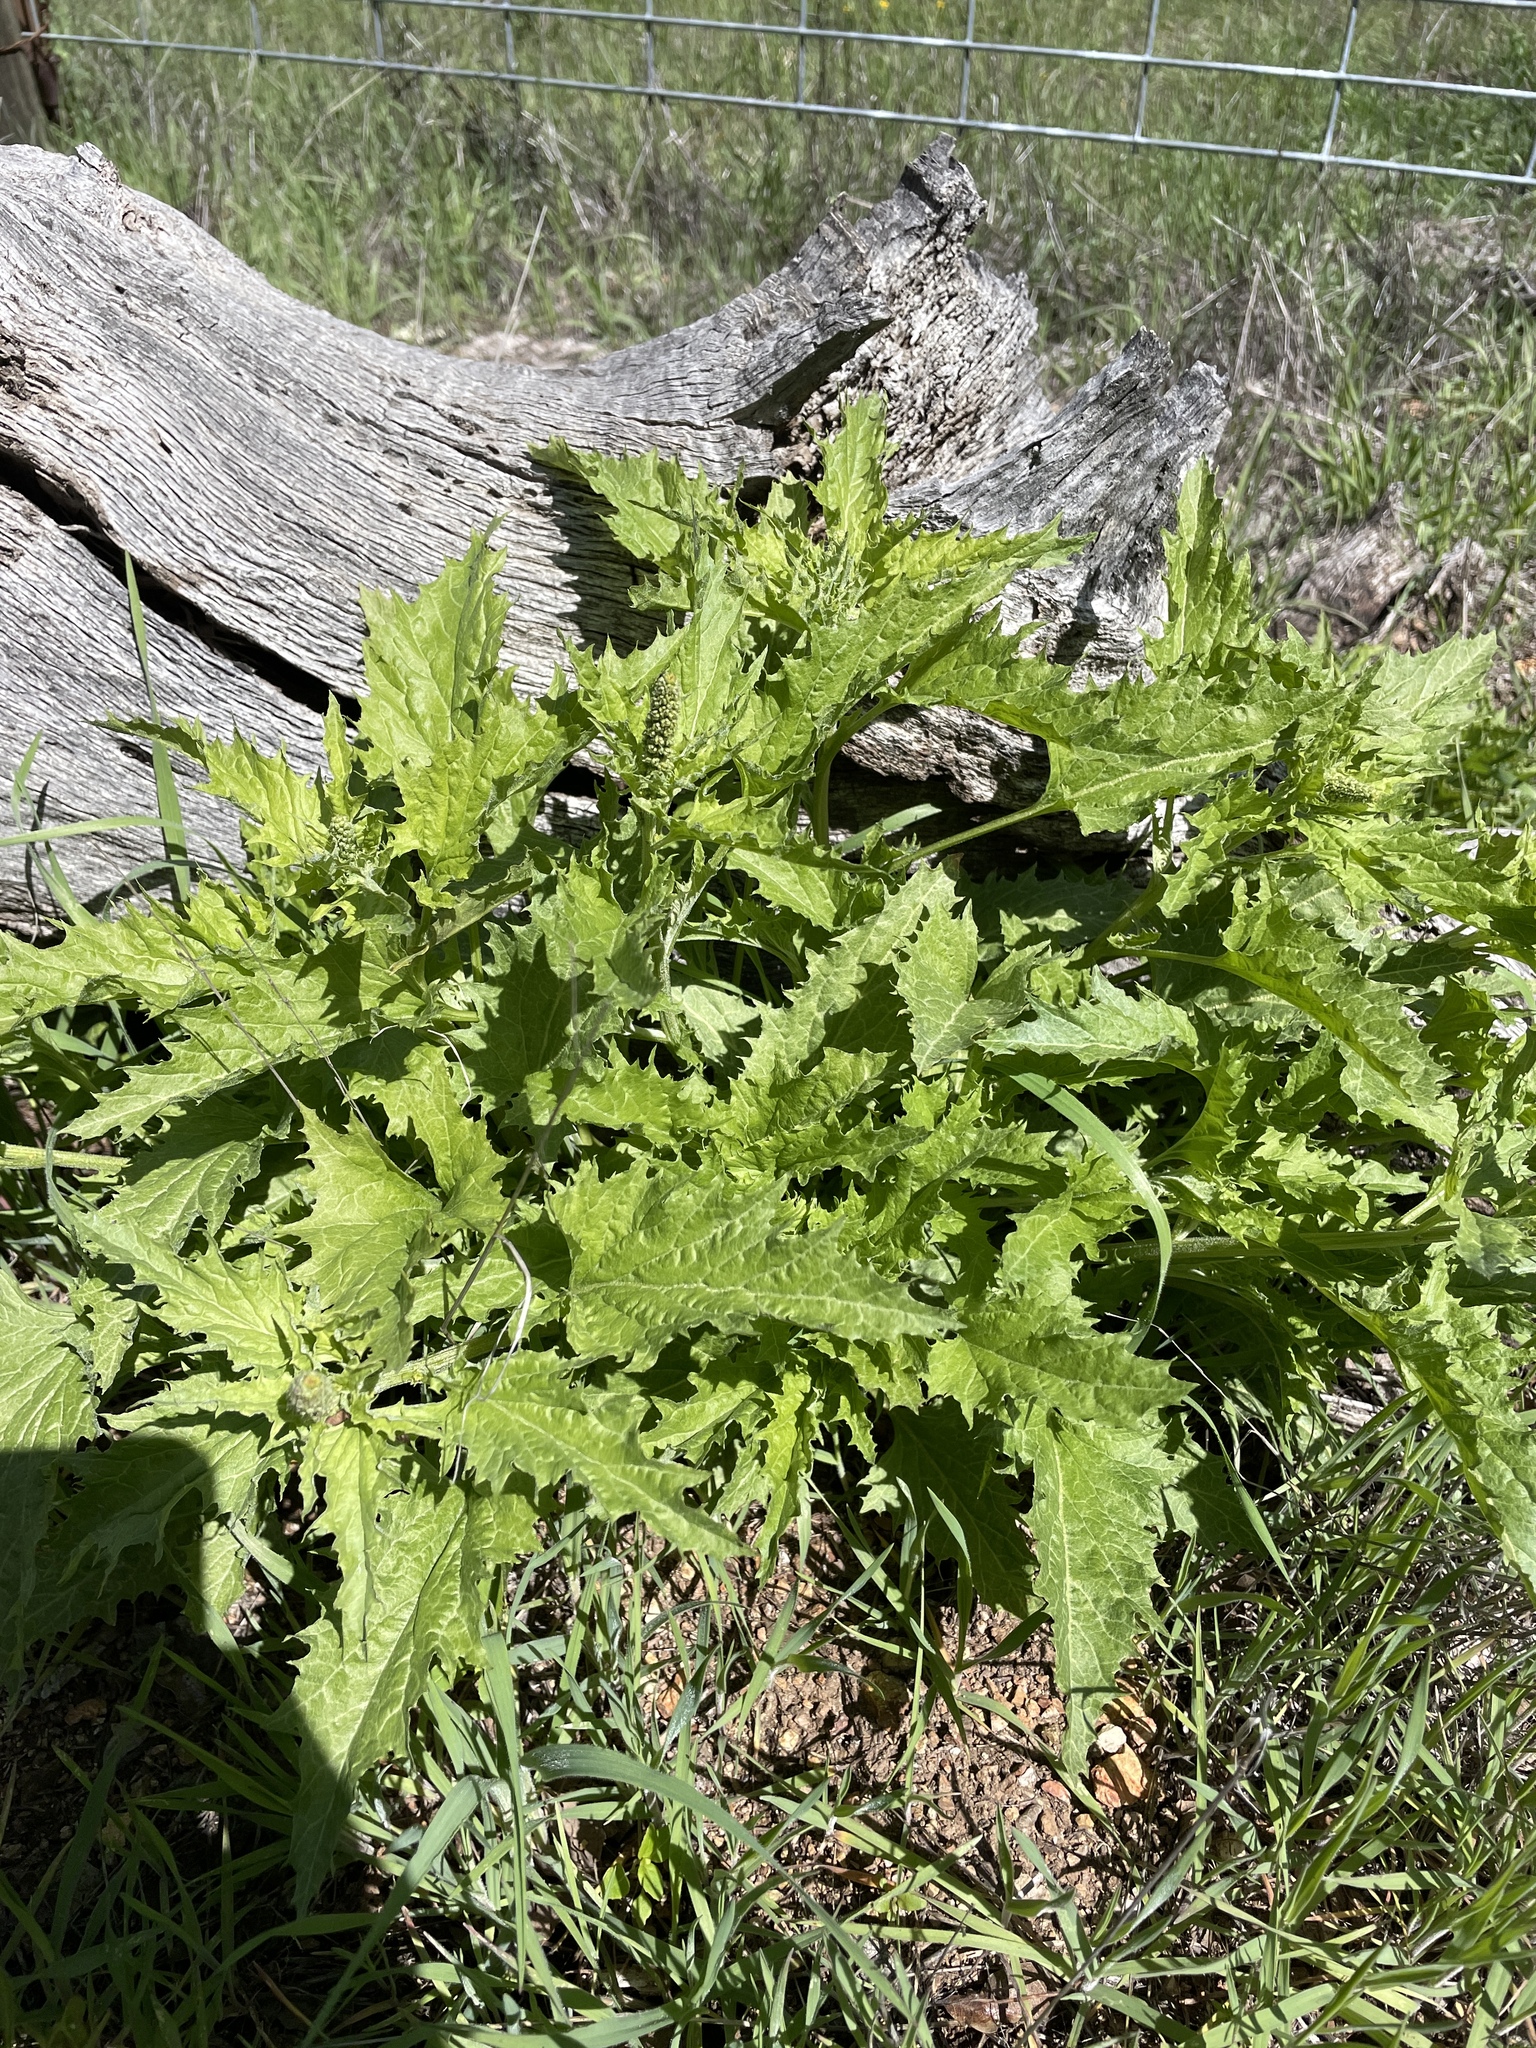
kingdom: Plantae
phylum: Tracheophyta
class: Magnoliopsida
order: Caryophyllales
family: Amaranthaceae
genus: Blitum
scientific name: Blitum californicum
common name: California goosefoot
